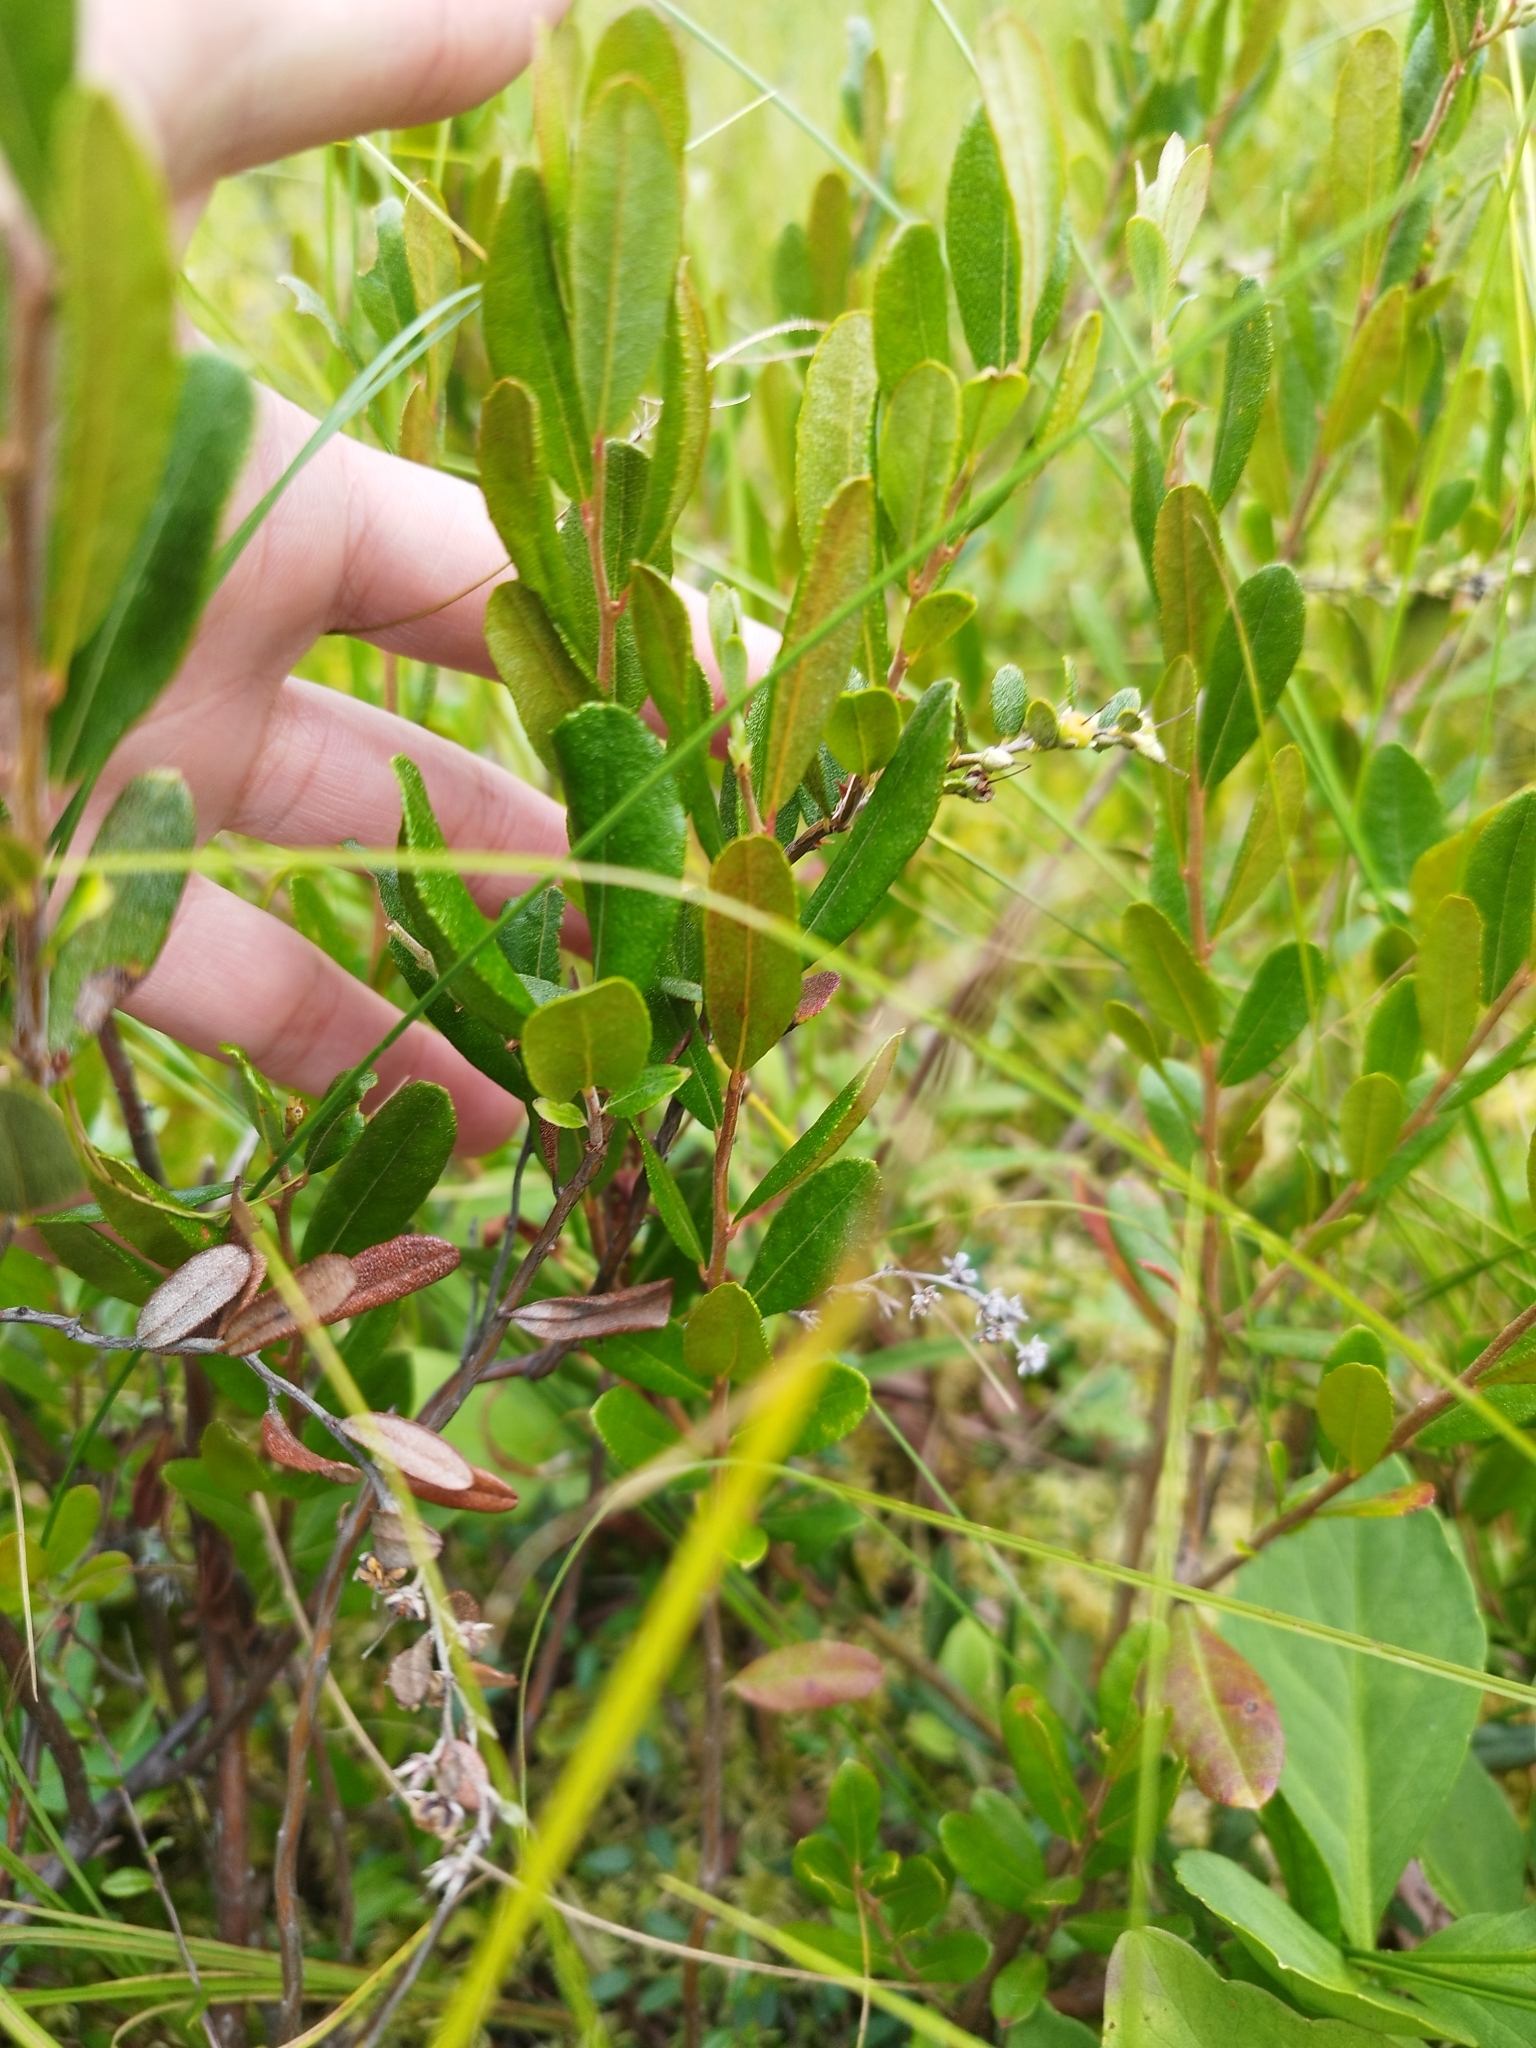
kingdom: Plantae
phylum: Tracheophyta
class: Magnoliopsida
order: Ericales
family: Ericaceae
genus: Chamaedaphne
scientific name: Chamaedaphne calyculata
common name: Leatherleaf
